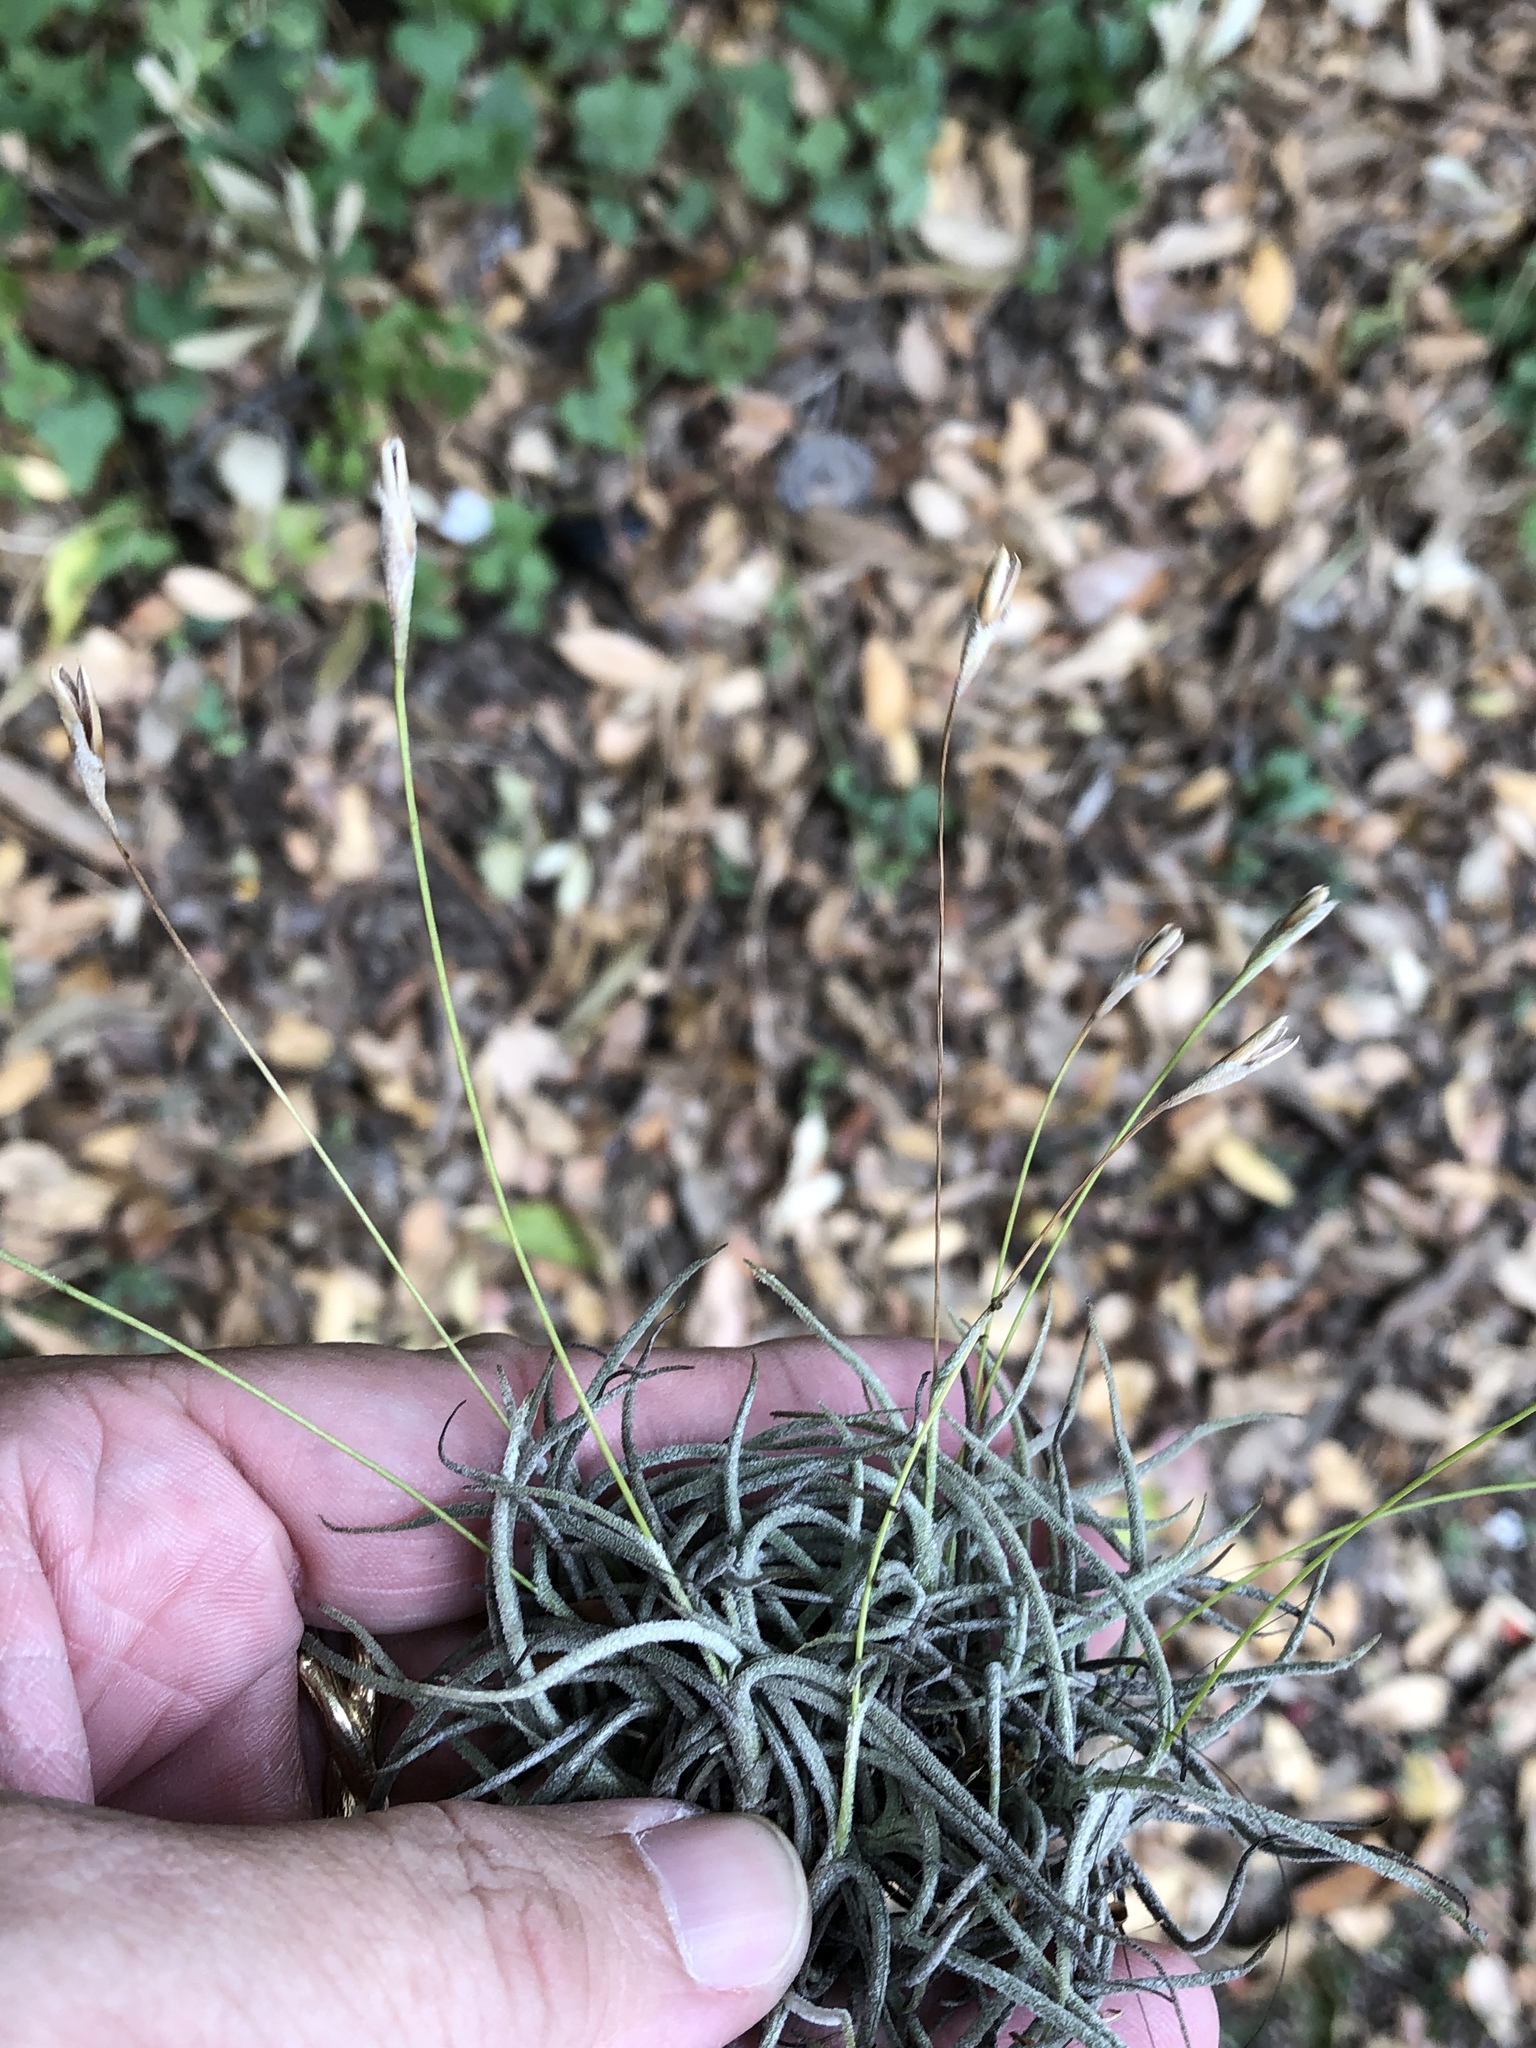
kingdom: Plantae
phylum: Tracheophyta
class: Liliopsida
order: Poales
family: Bromeliaceae
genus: Tillandsia
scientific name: Tillandsia recurvata
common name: Small ballmoss
